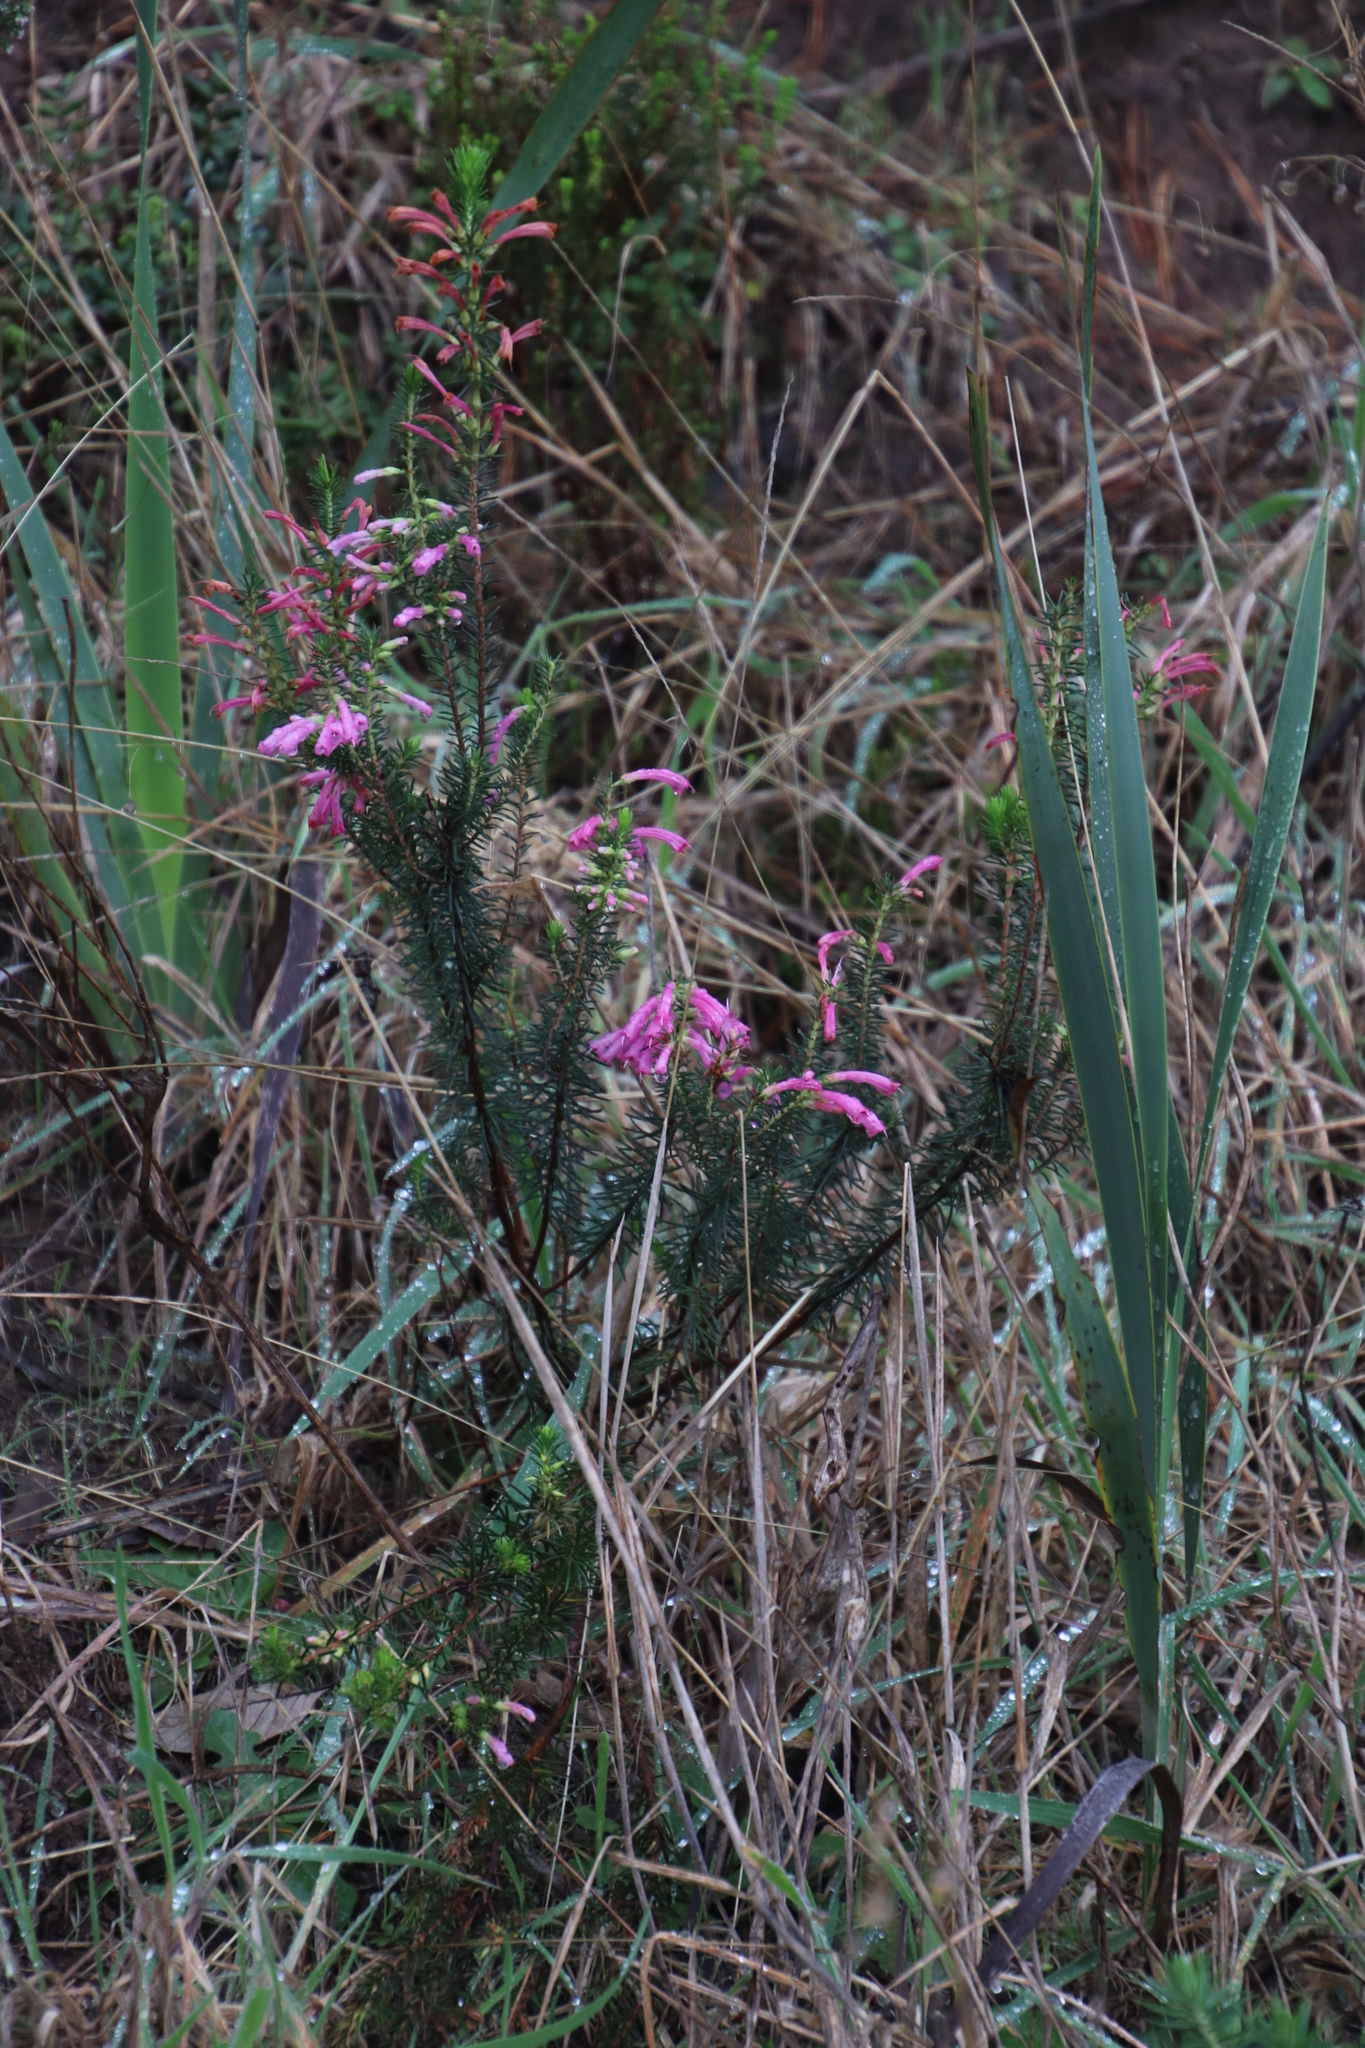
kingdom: Plantae
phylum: Tracheophyta
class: Magnoliopsida
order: Ericales
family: Ericaceae
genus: Erica
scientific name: Erica abietina
